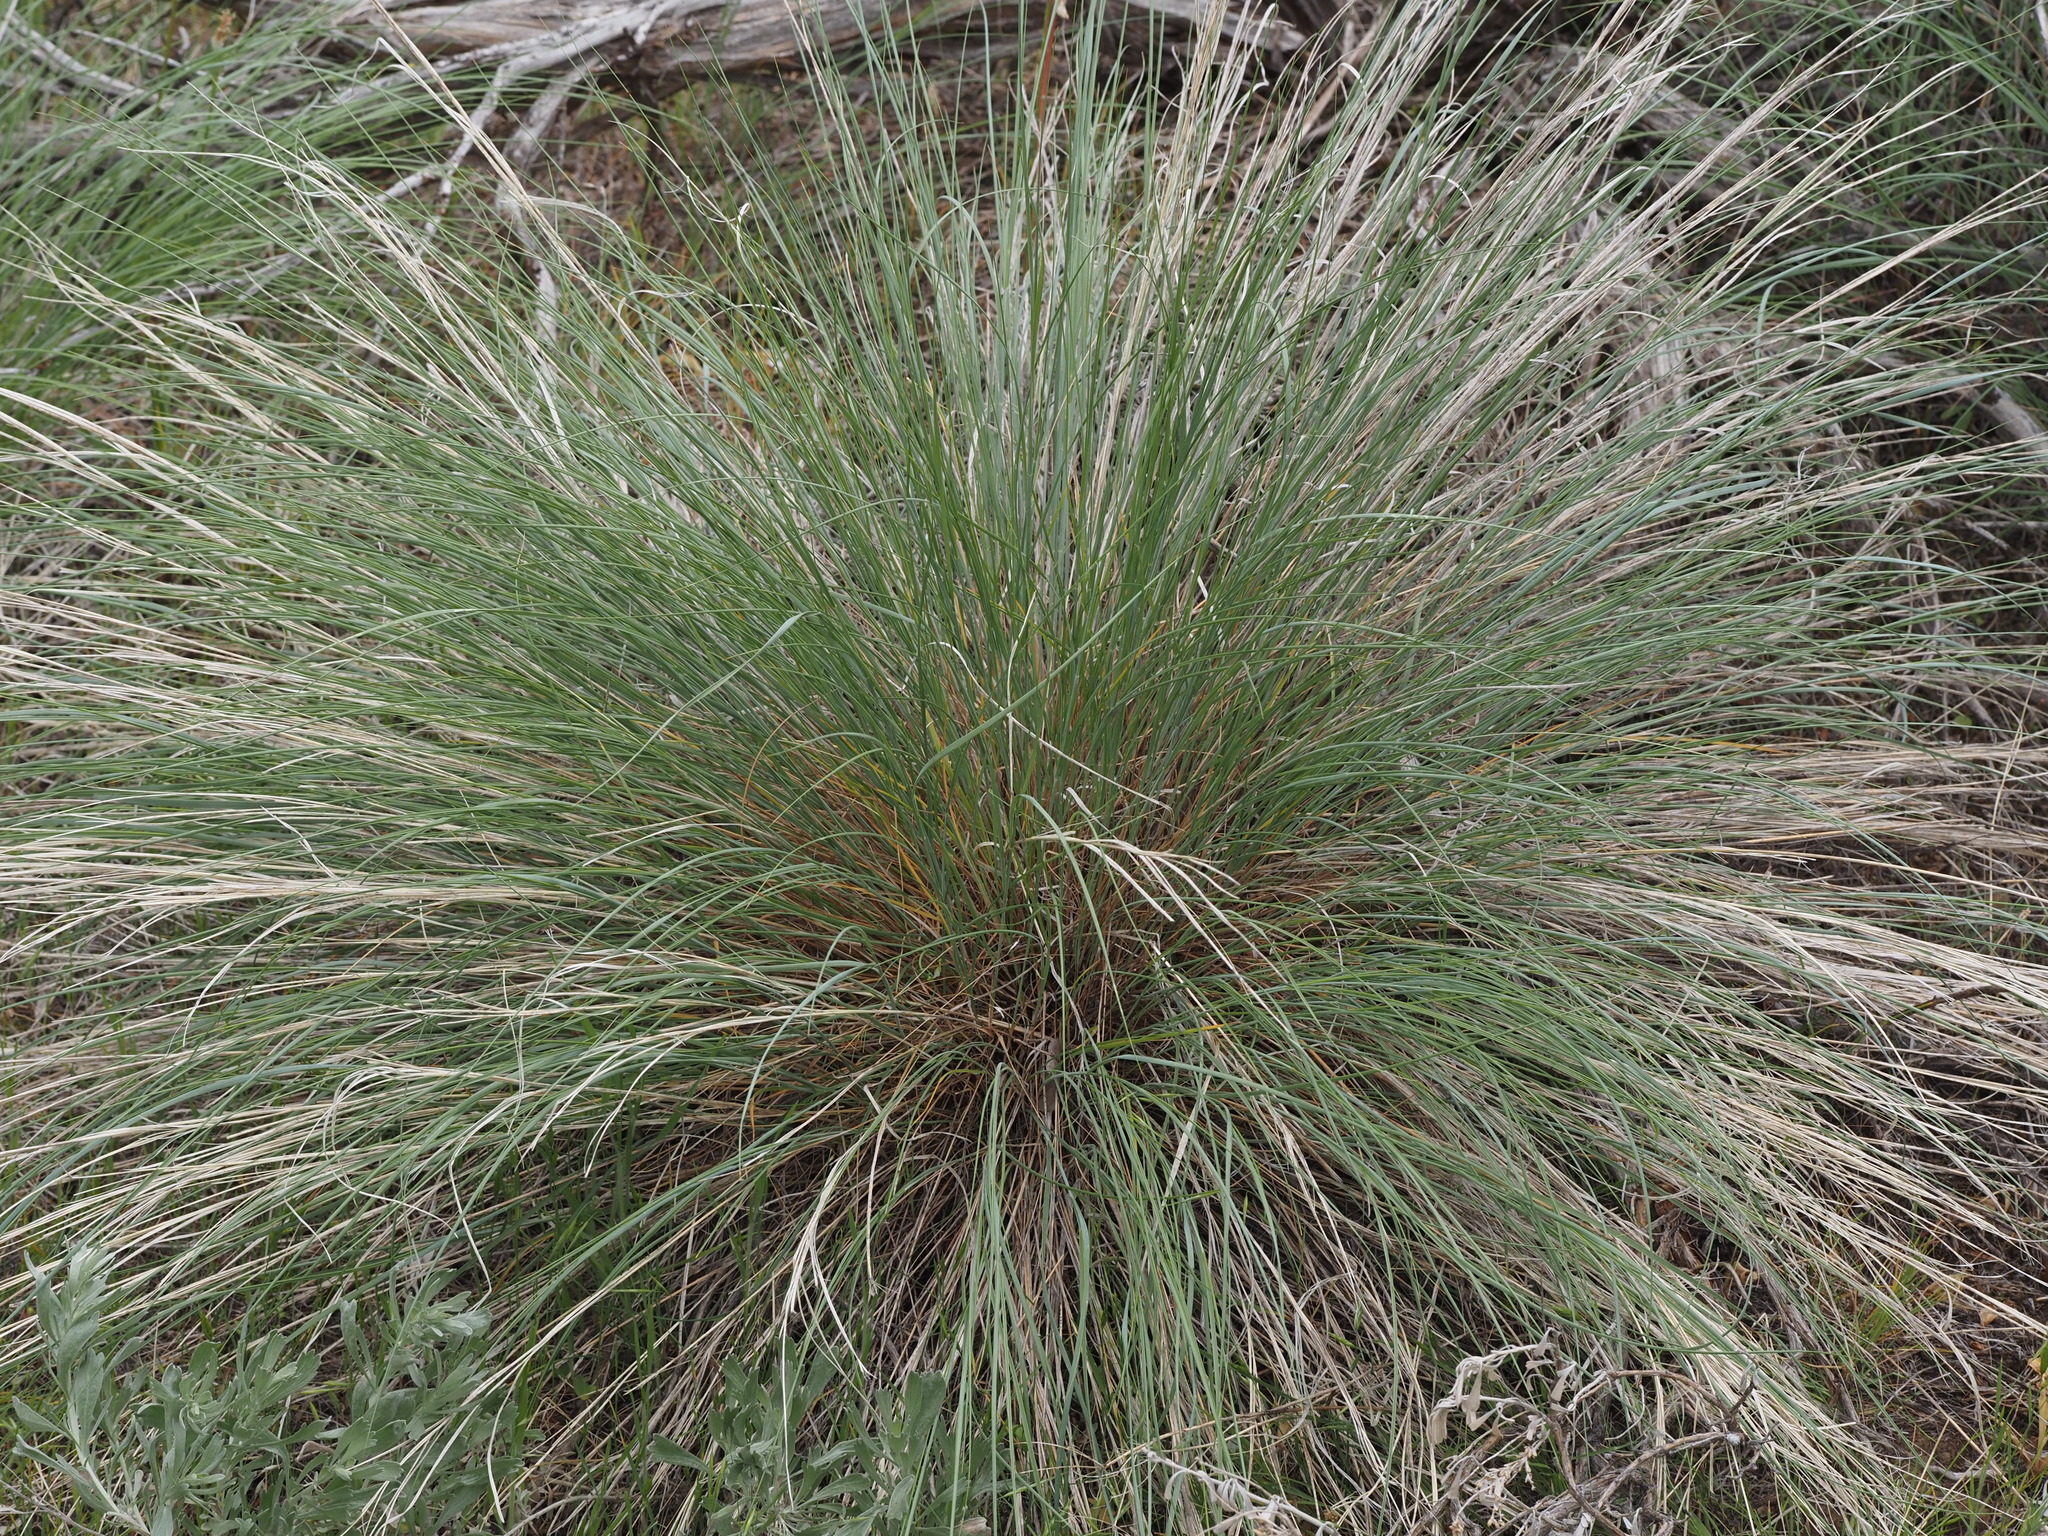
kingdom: Plantae
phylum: Tracheophyta
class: Liliopsida
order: Poales
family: Poaceae
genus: Pseudoroegneria
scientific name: Pseudoroegneria spicata
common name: Bluebunch wheatgrass
